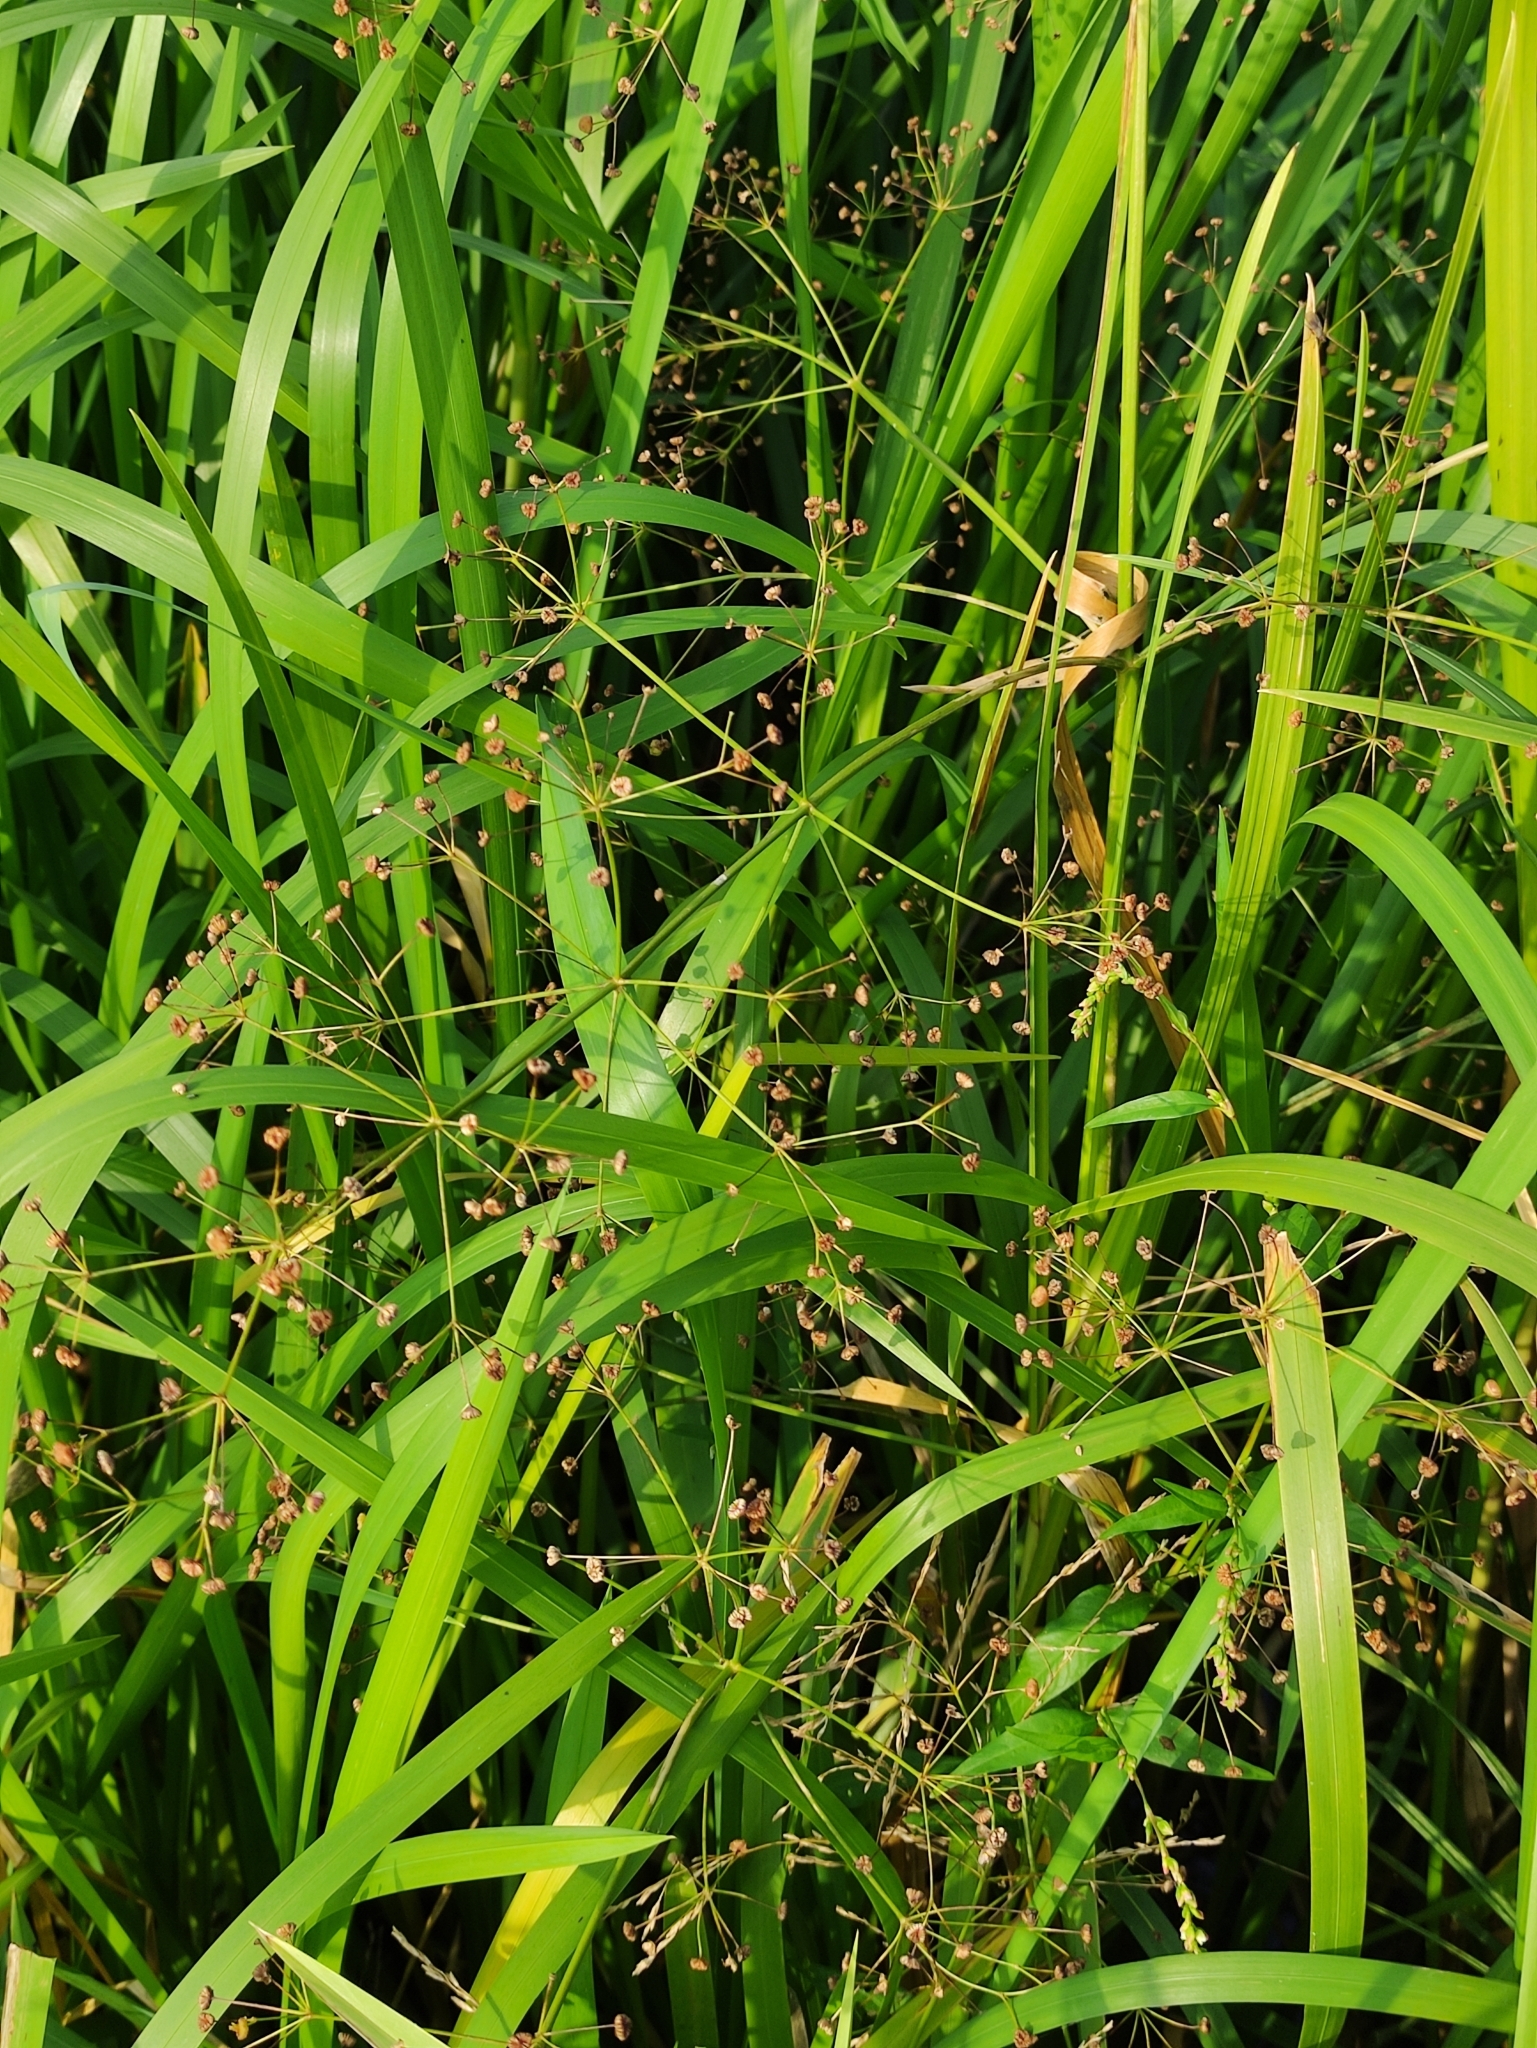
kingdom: Plantae
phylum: Tracheophyta
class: Liliopsida
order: Alismatales
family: Alismataceae
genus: Alisma
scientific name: Alisma plantago-aquatica
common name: Water-plantain
